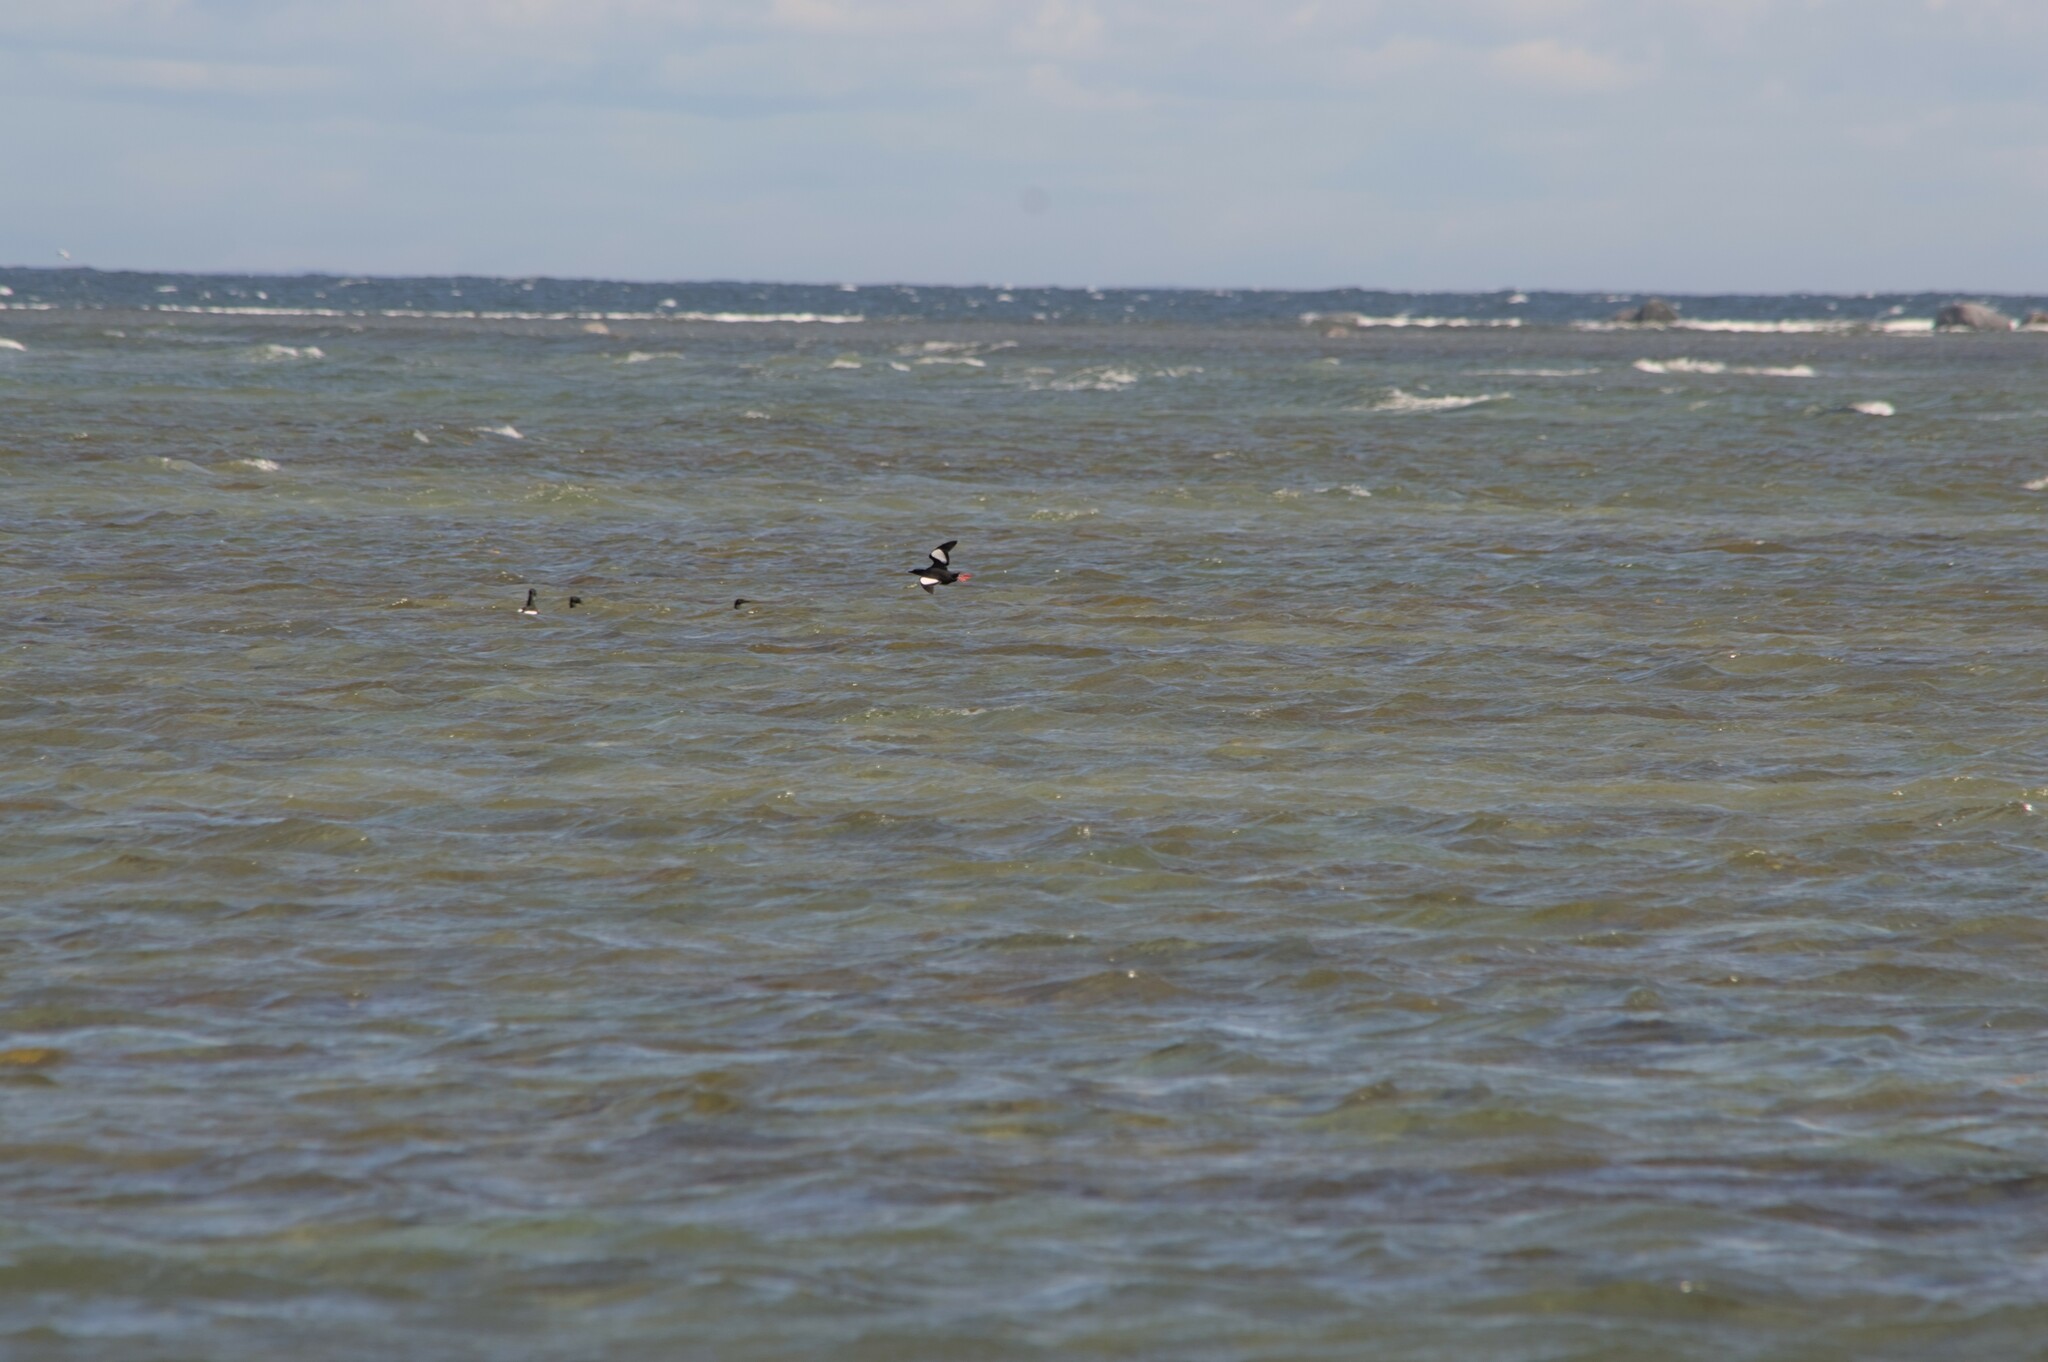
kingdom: Animalia
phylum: Chordata
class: Aves
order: Charadriiformes
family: Alcidae
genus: Cepphus
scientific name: Cepphus grylle
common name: Black guillemot
